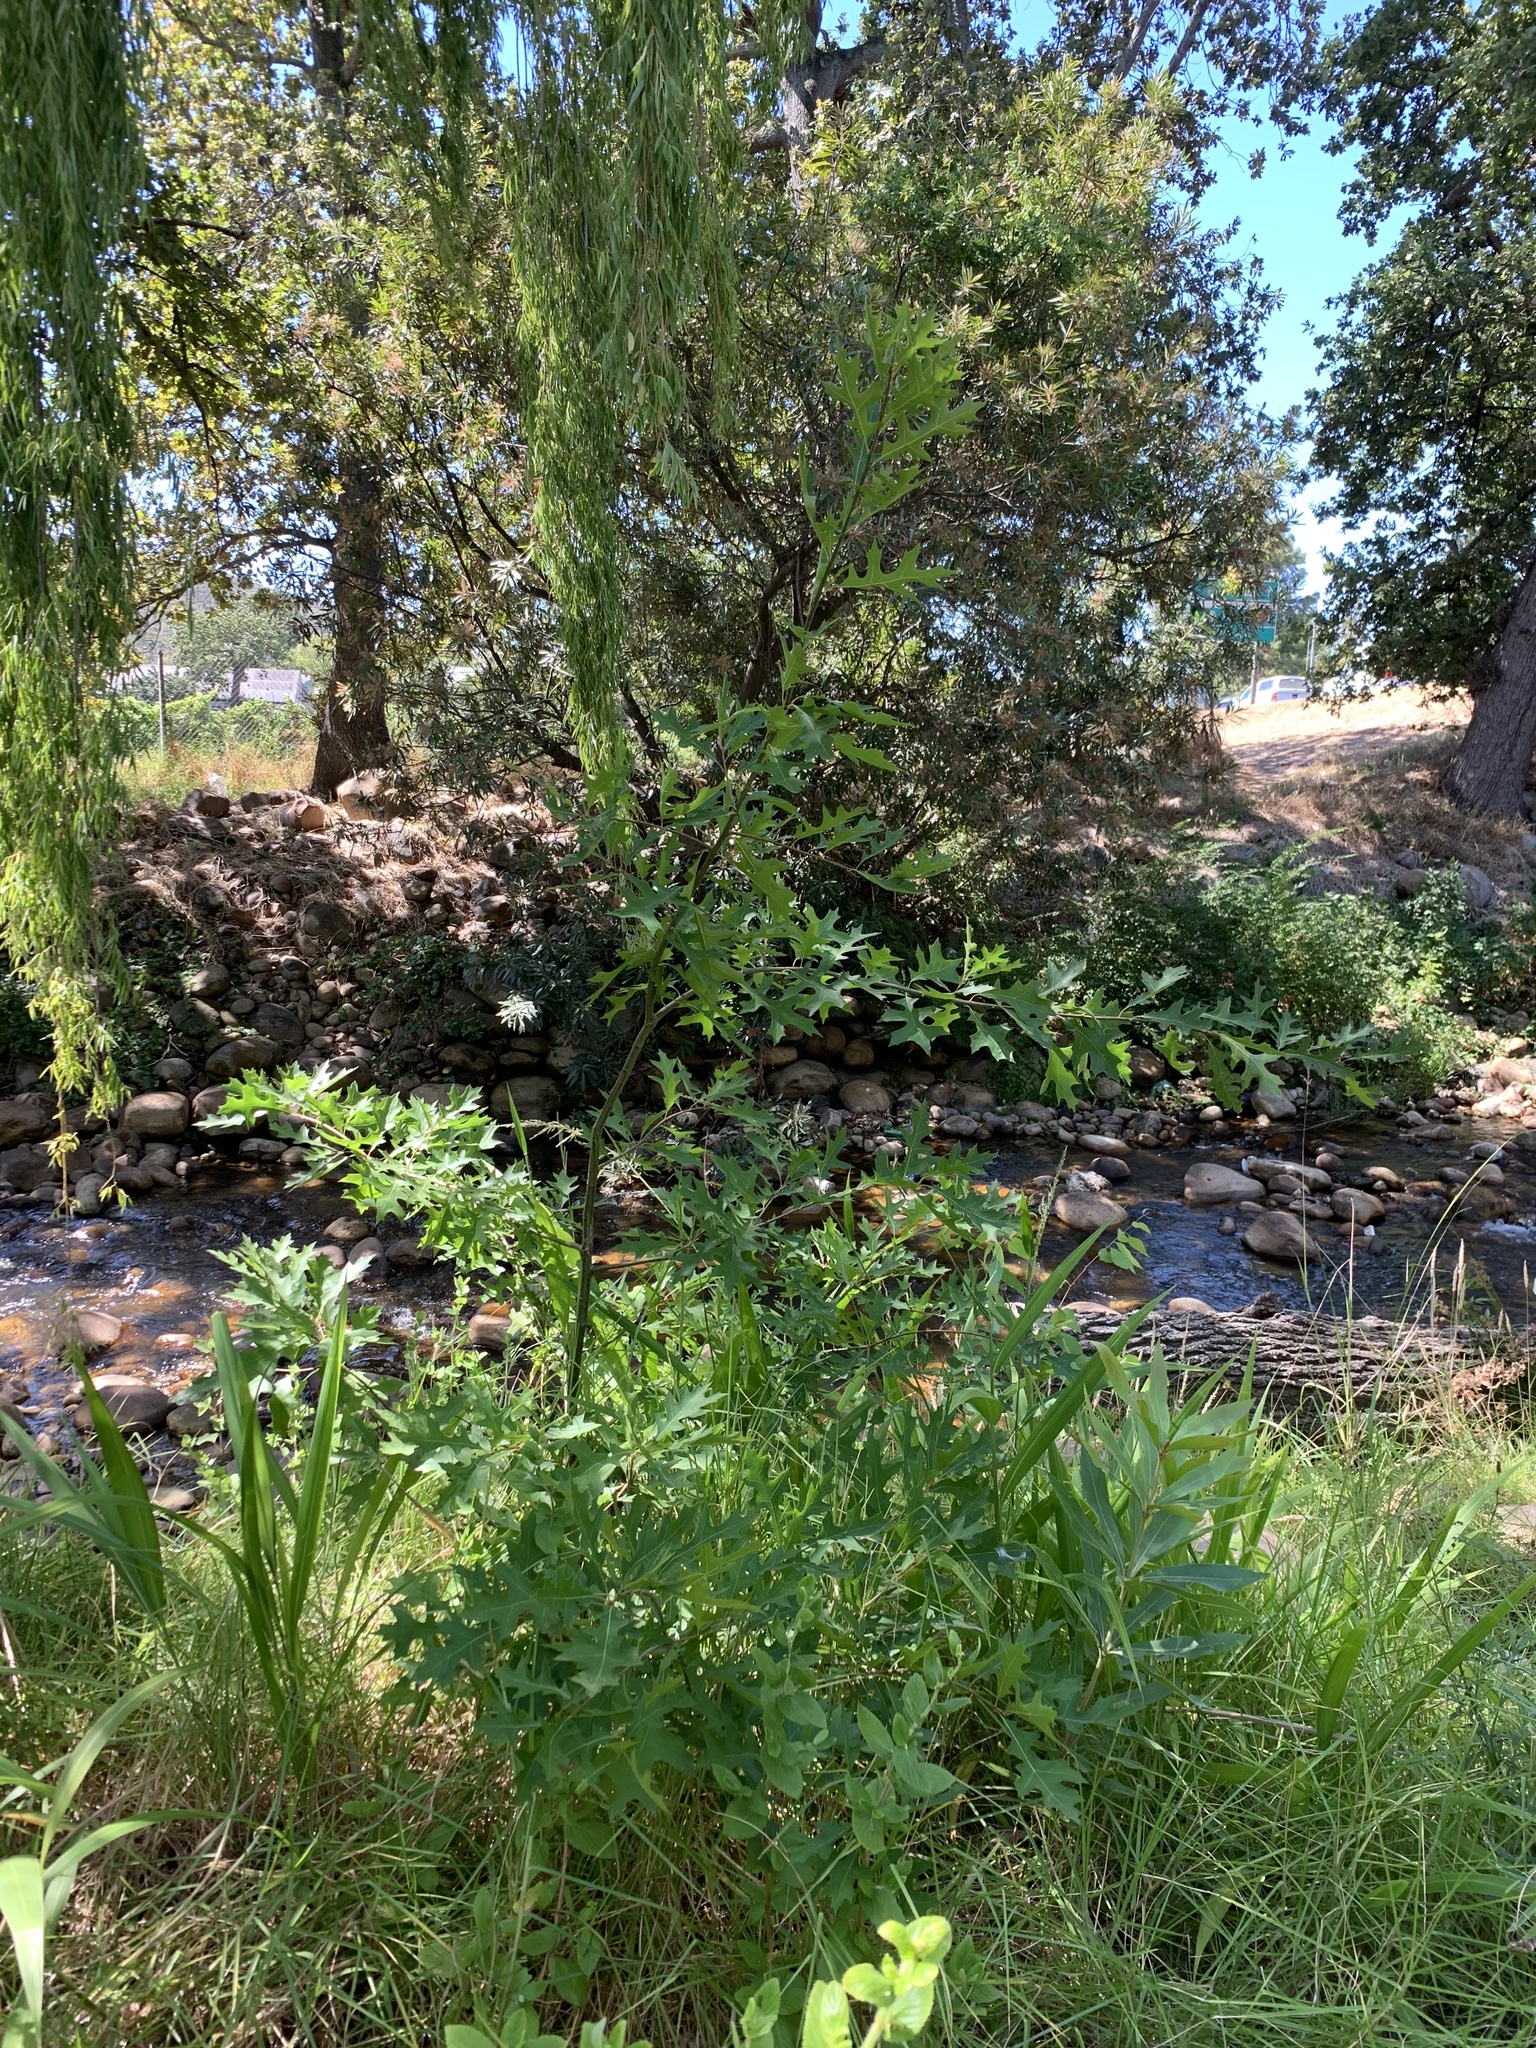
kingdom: Plantae
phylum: Tracheophyta
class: Magnoliopsida
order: Fagales
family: Fagaceae
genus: Quercus
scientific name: Quercus palustris
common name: Pin oak
